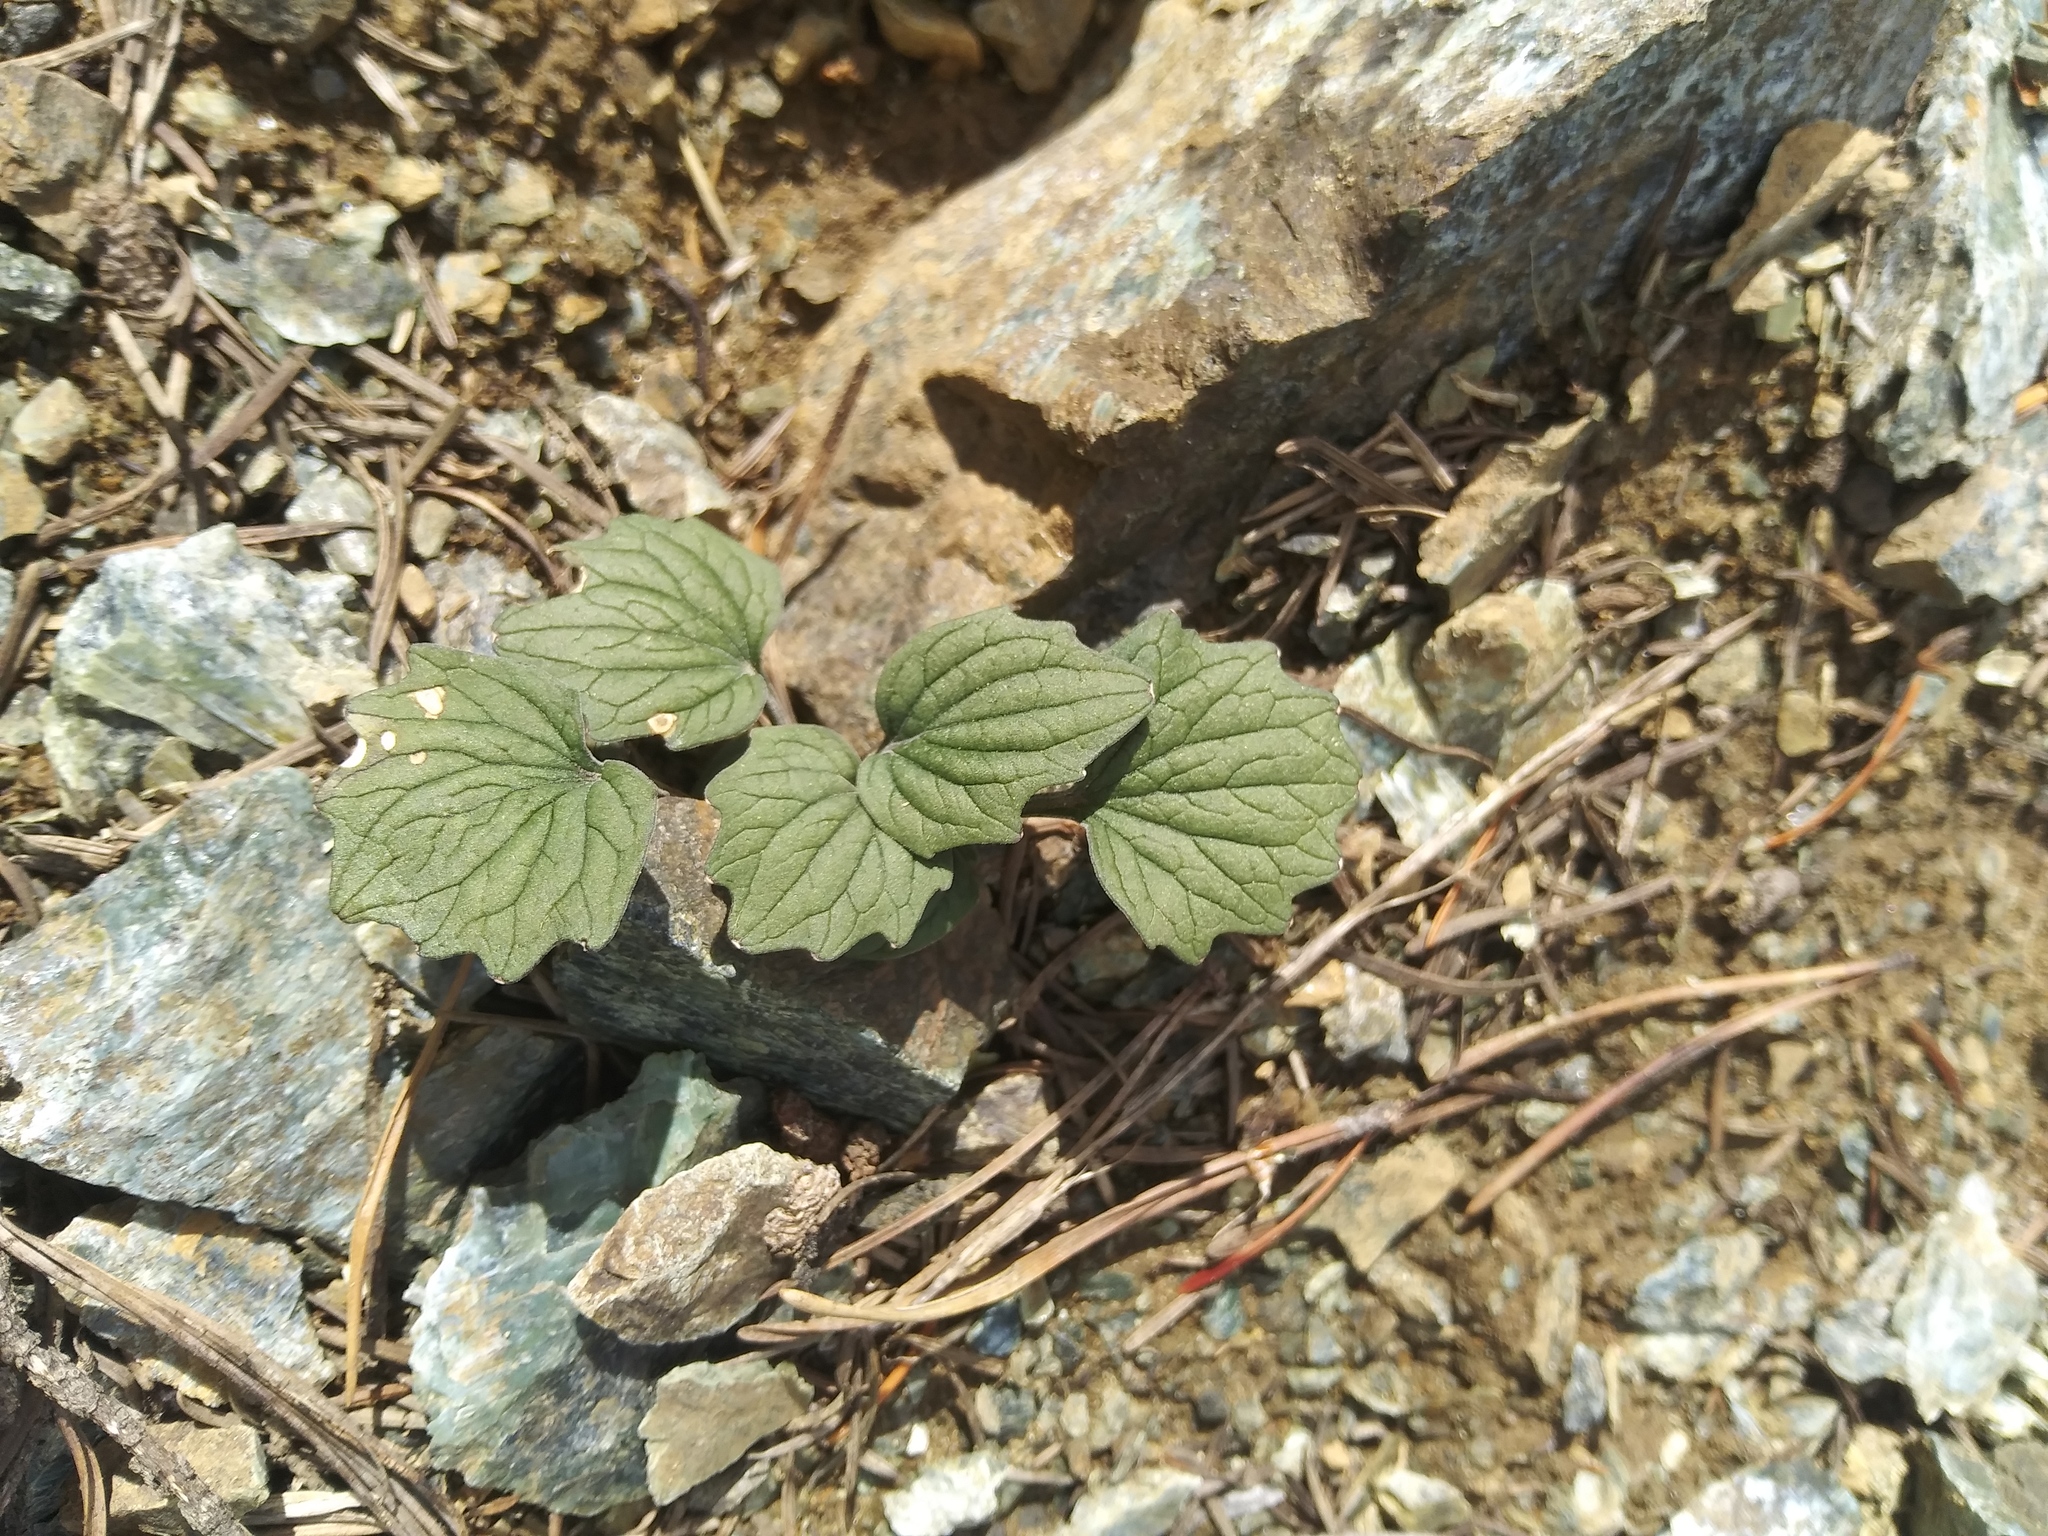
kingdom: Plantae
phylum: Tracheophyta
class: Magnoliopsida
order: Malpighiales
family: Violaceae
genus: Viola
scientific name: Viola purpurea
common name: Pine violet
